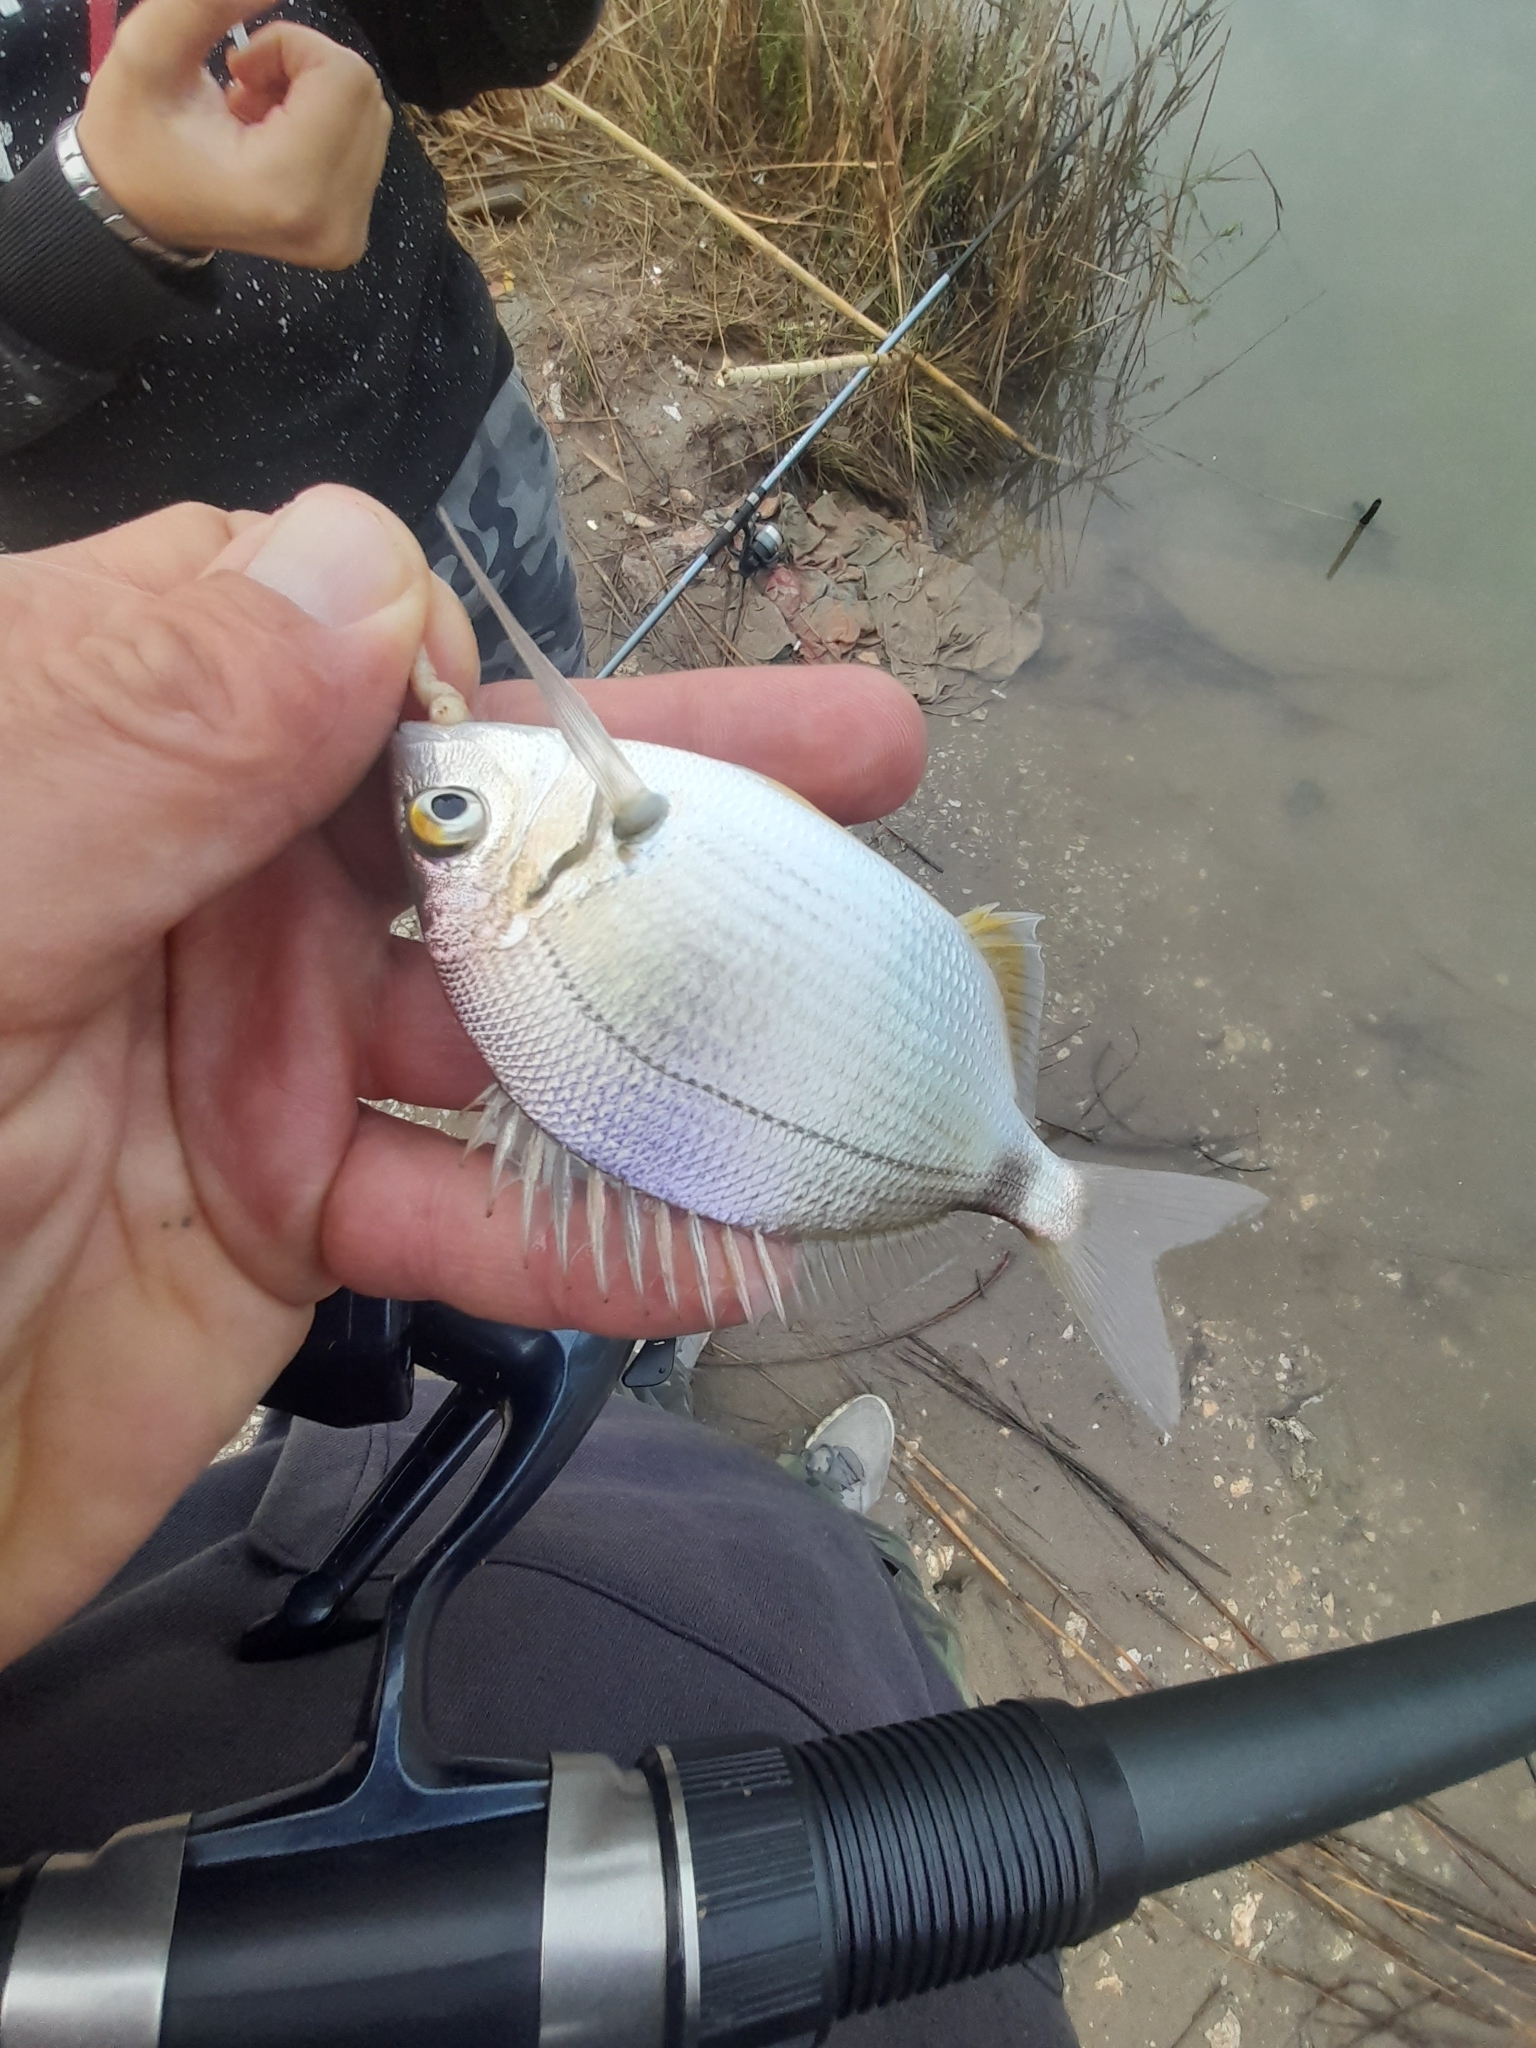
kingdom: Animalia
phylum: Chordata
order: Perciformes
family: Sparidae
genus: Diplodus
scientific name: Diplodus annularis
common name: Annular seabream
